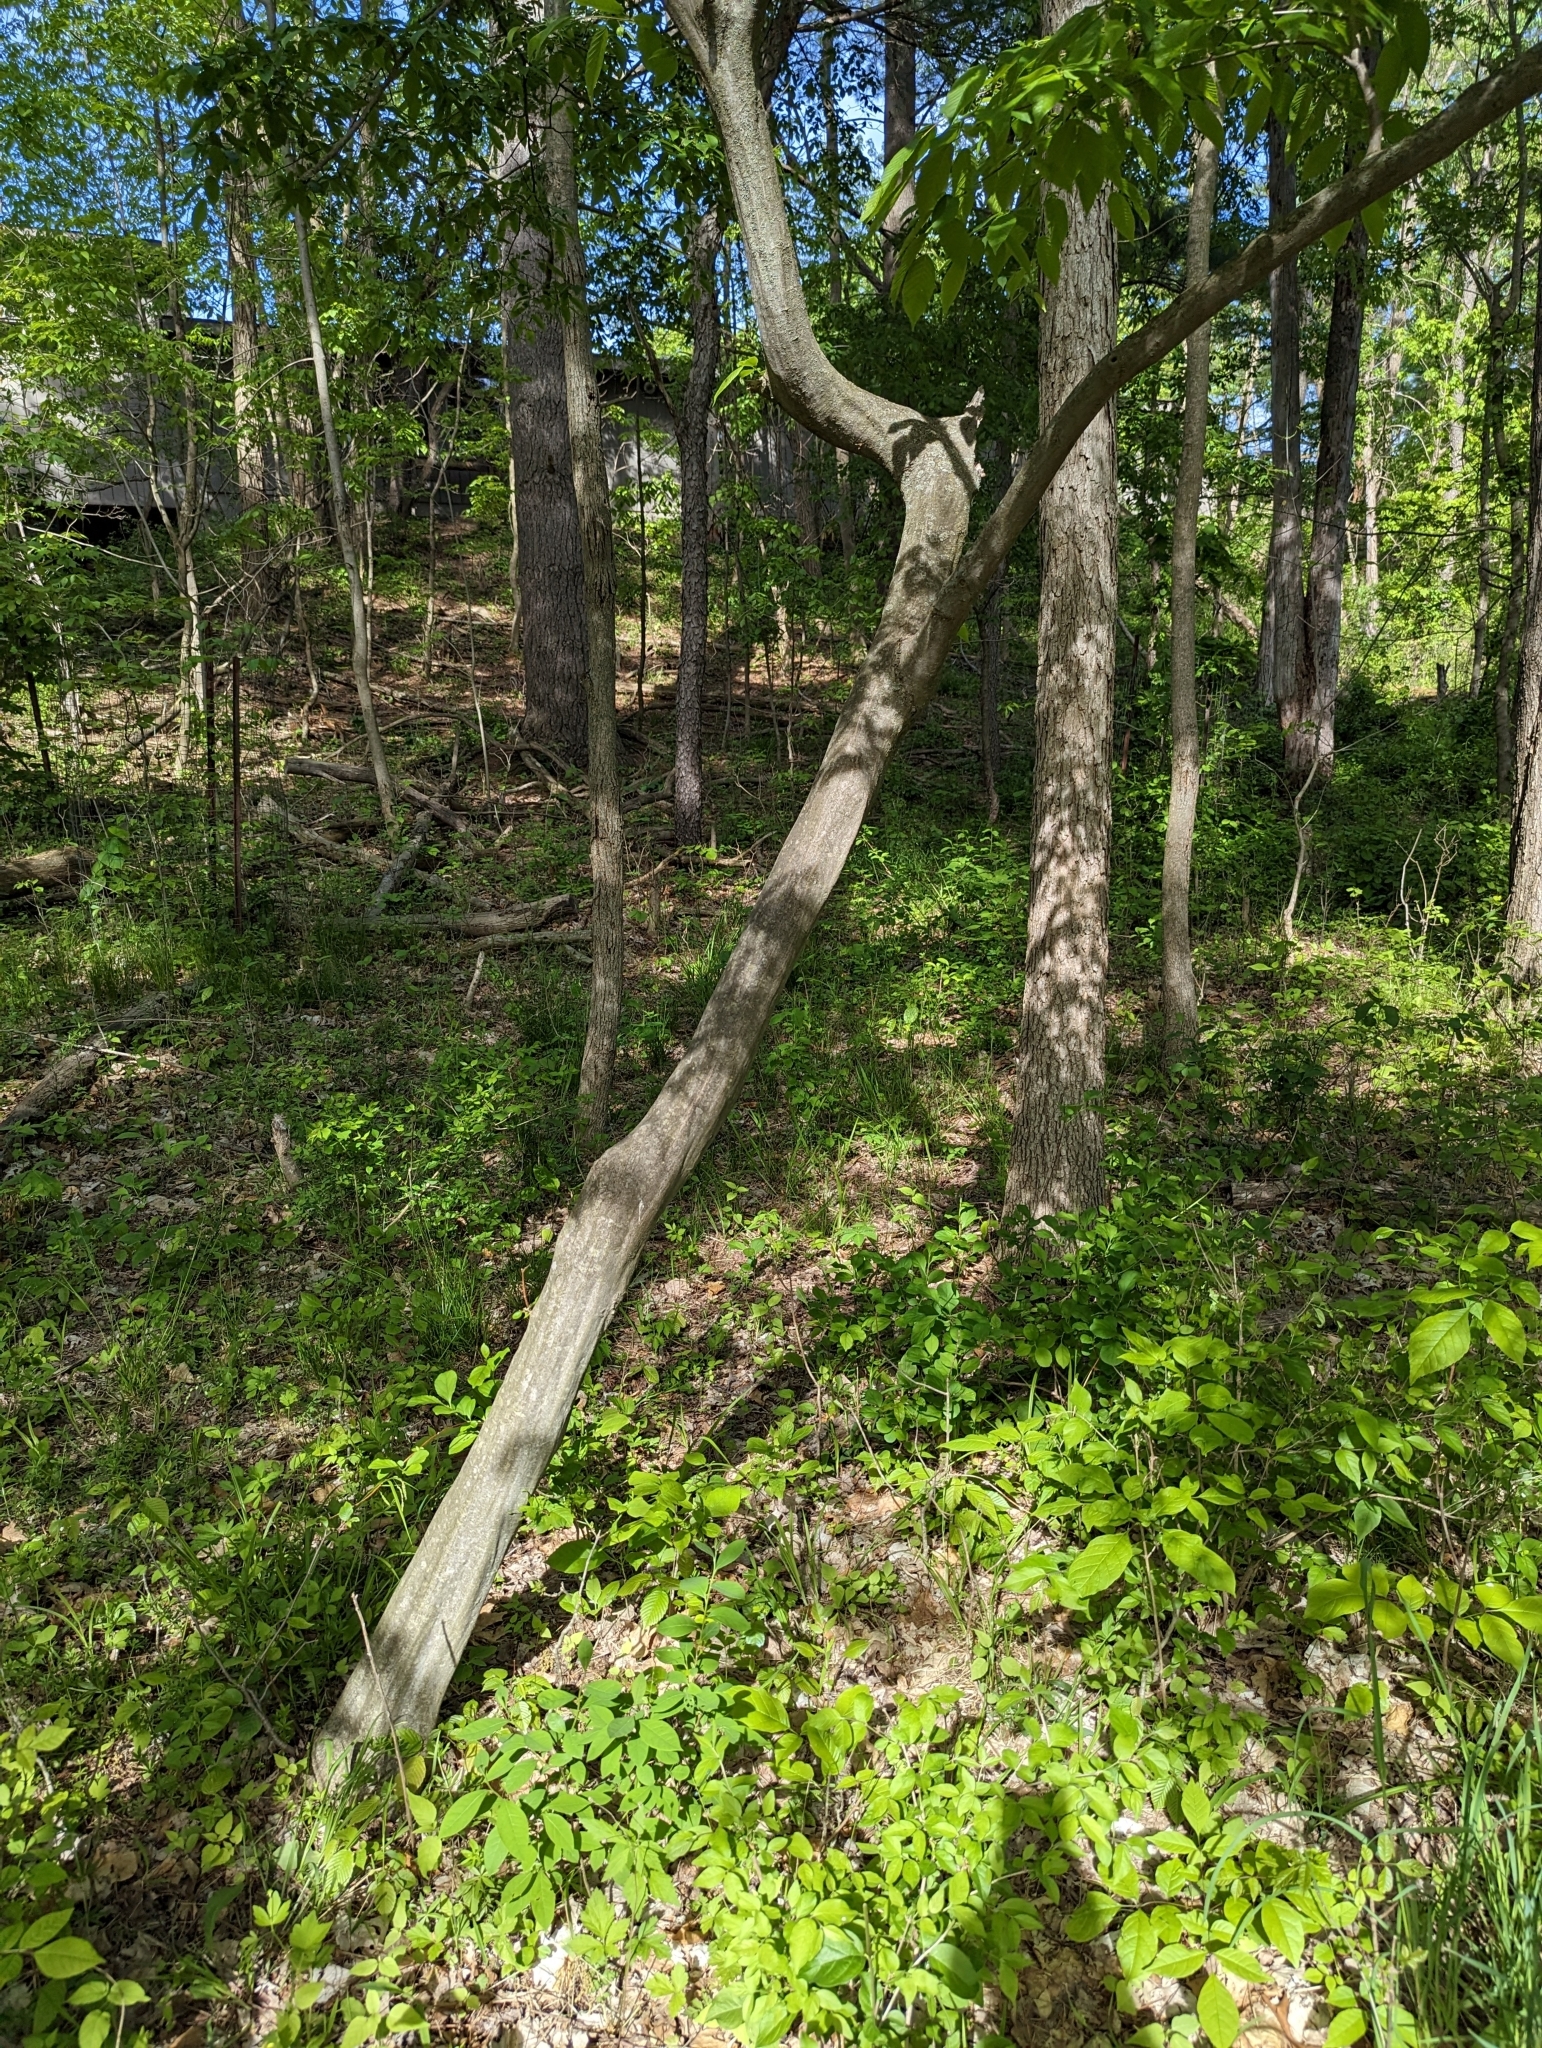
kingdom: Plantae
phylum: Tracheophyta
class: Magnoliopsida
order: Fagales
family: Betulaceae
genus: Carpinus
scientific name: Carpinus caroliniana
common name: American hornbeam
